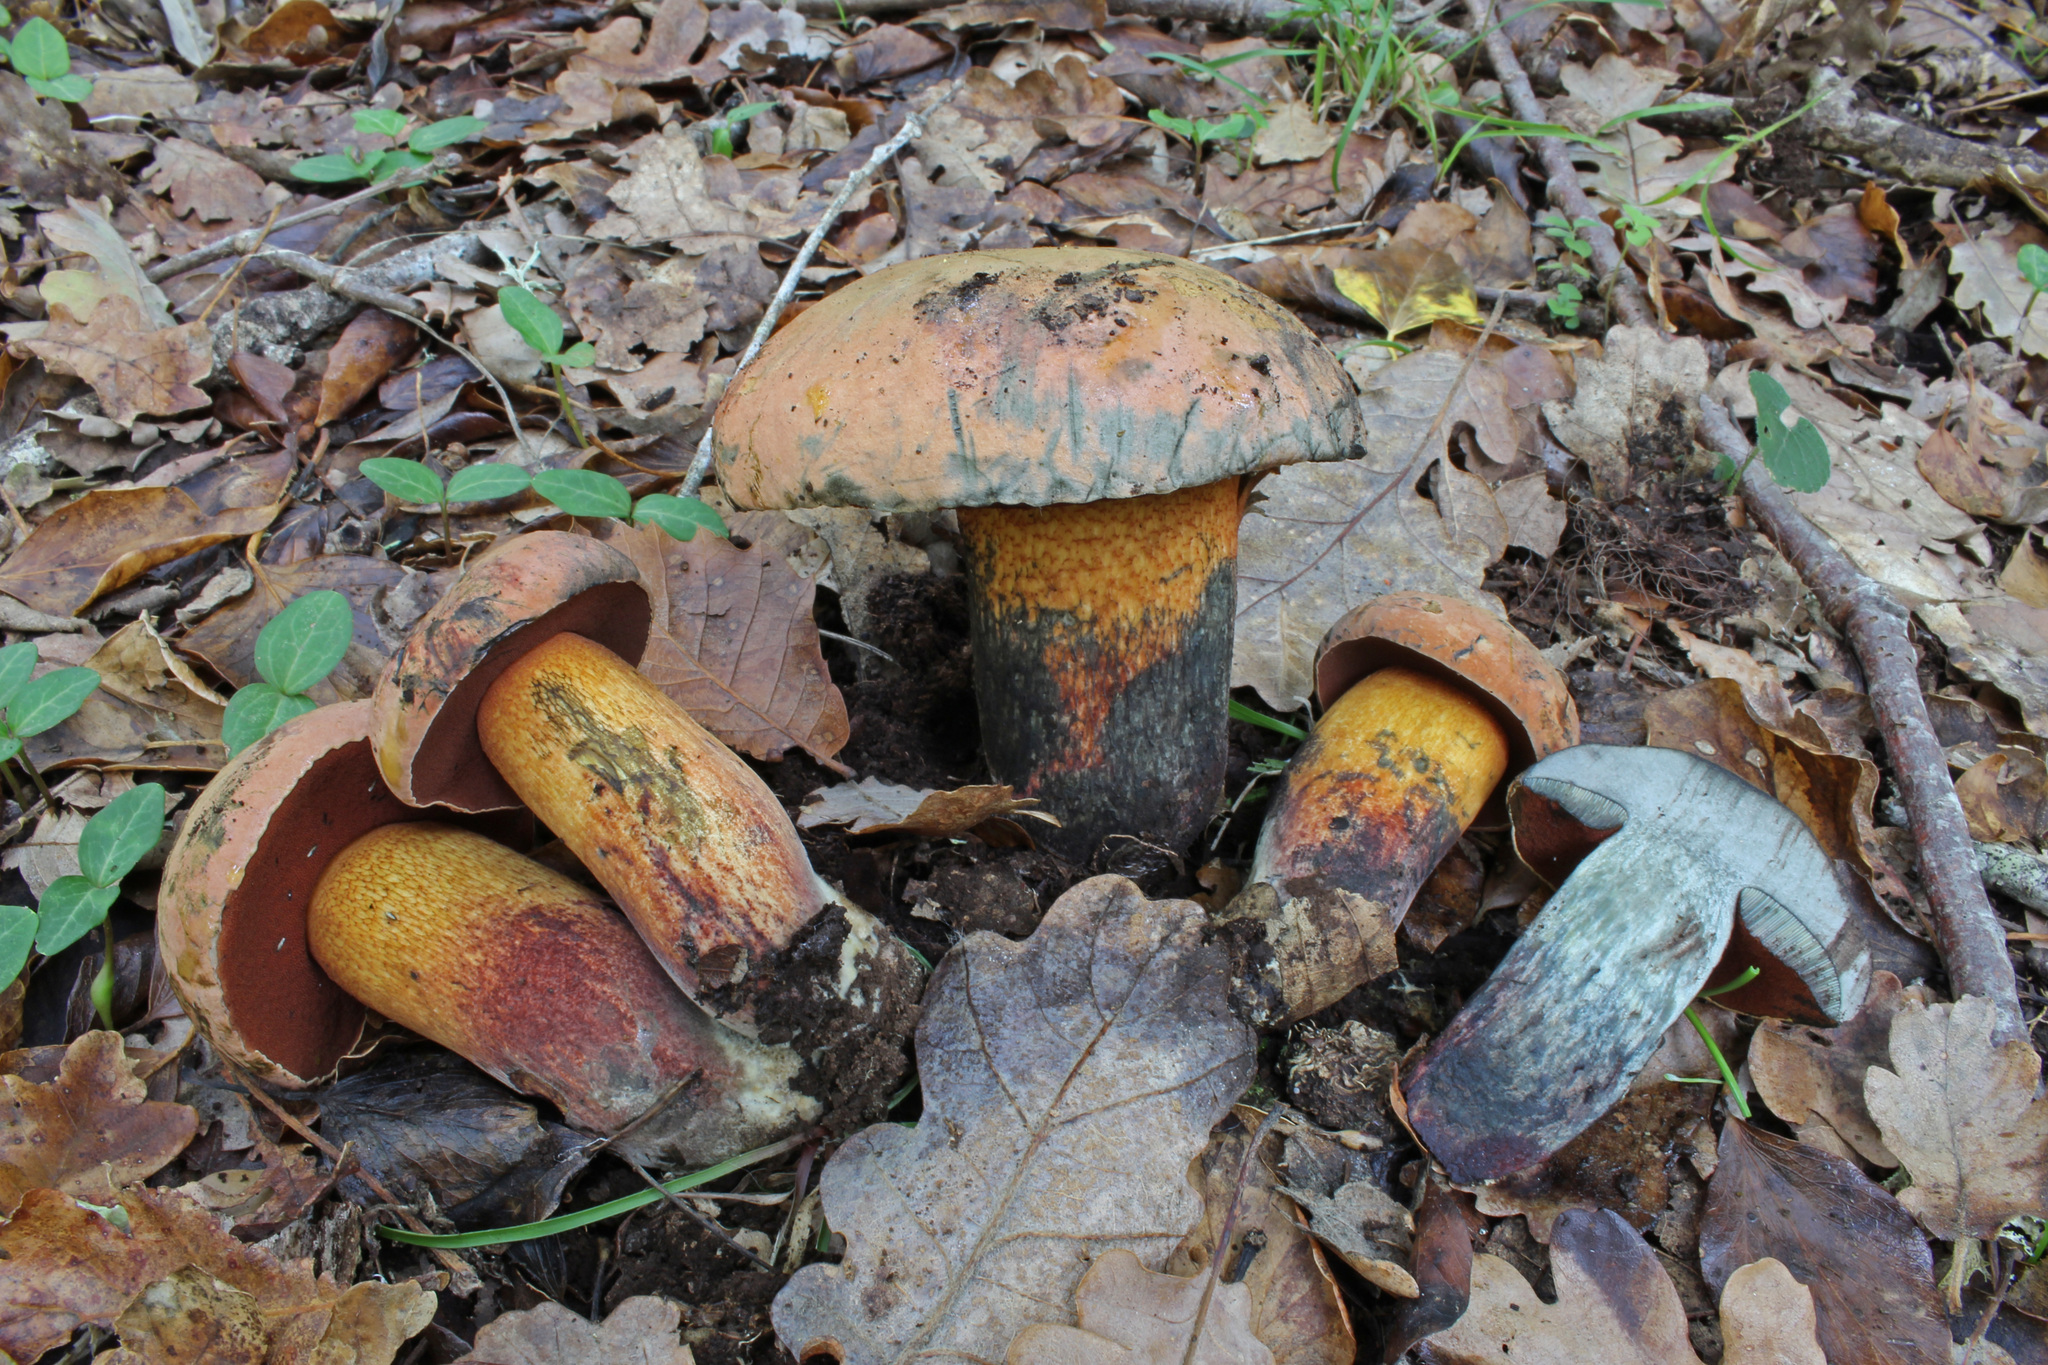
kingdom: Fungi
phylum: Basidiomycota
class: Agaricomycetes
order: Boletales
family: Boletaceae
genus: Suillellus
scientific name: Suillellus mendax
